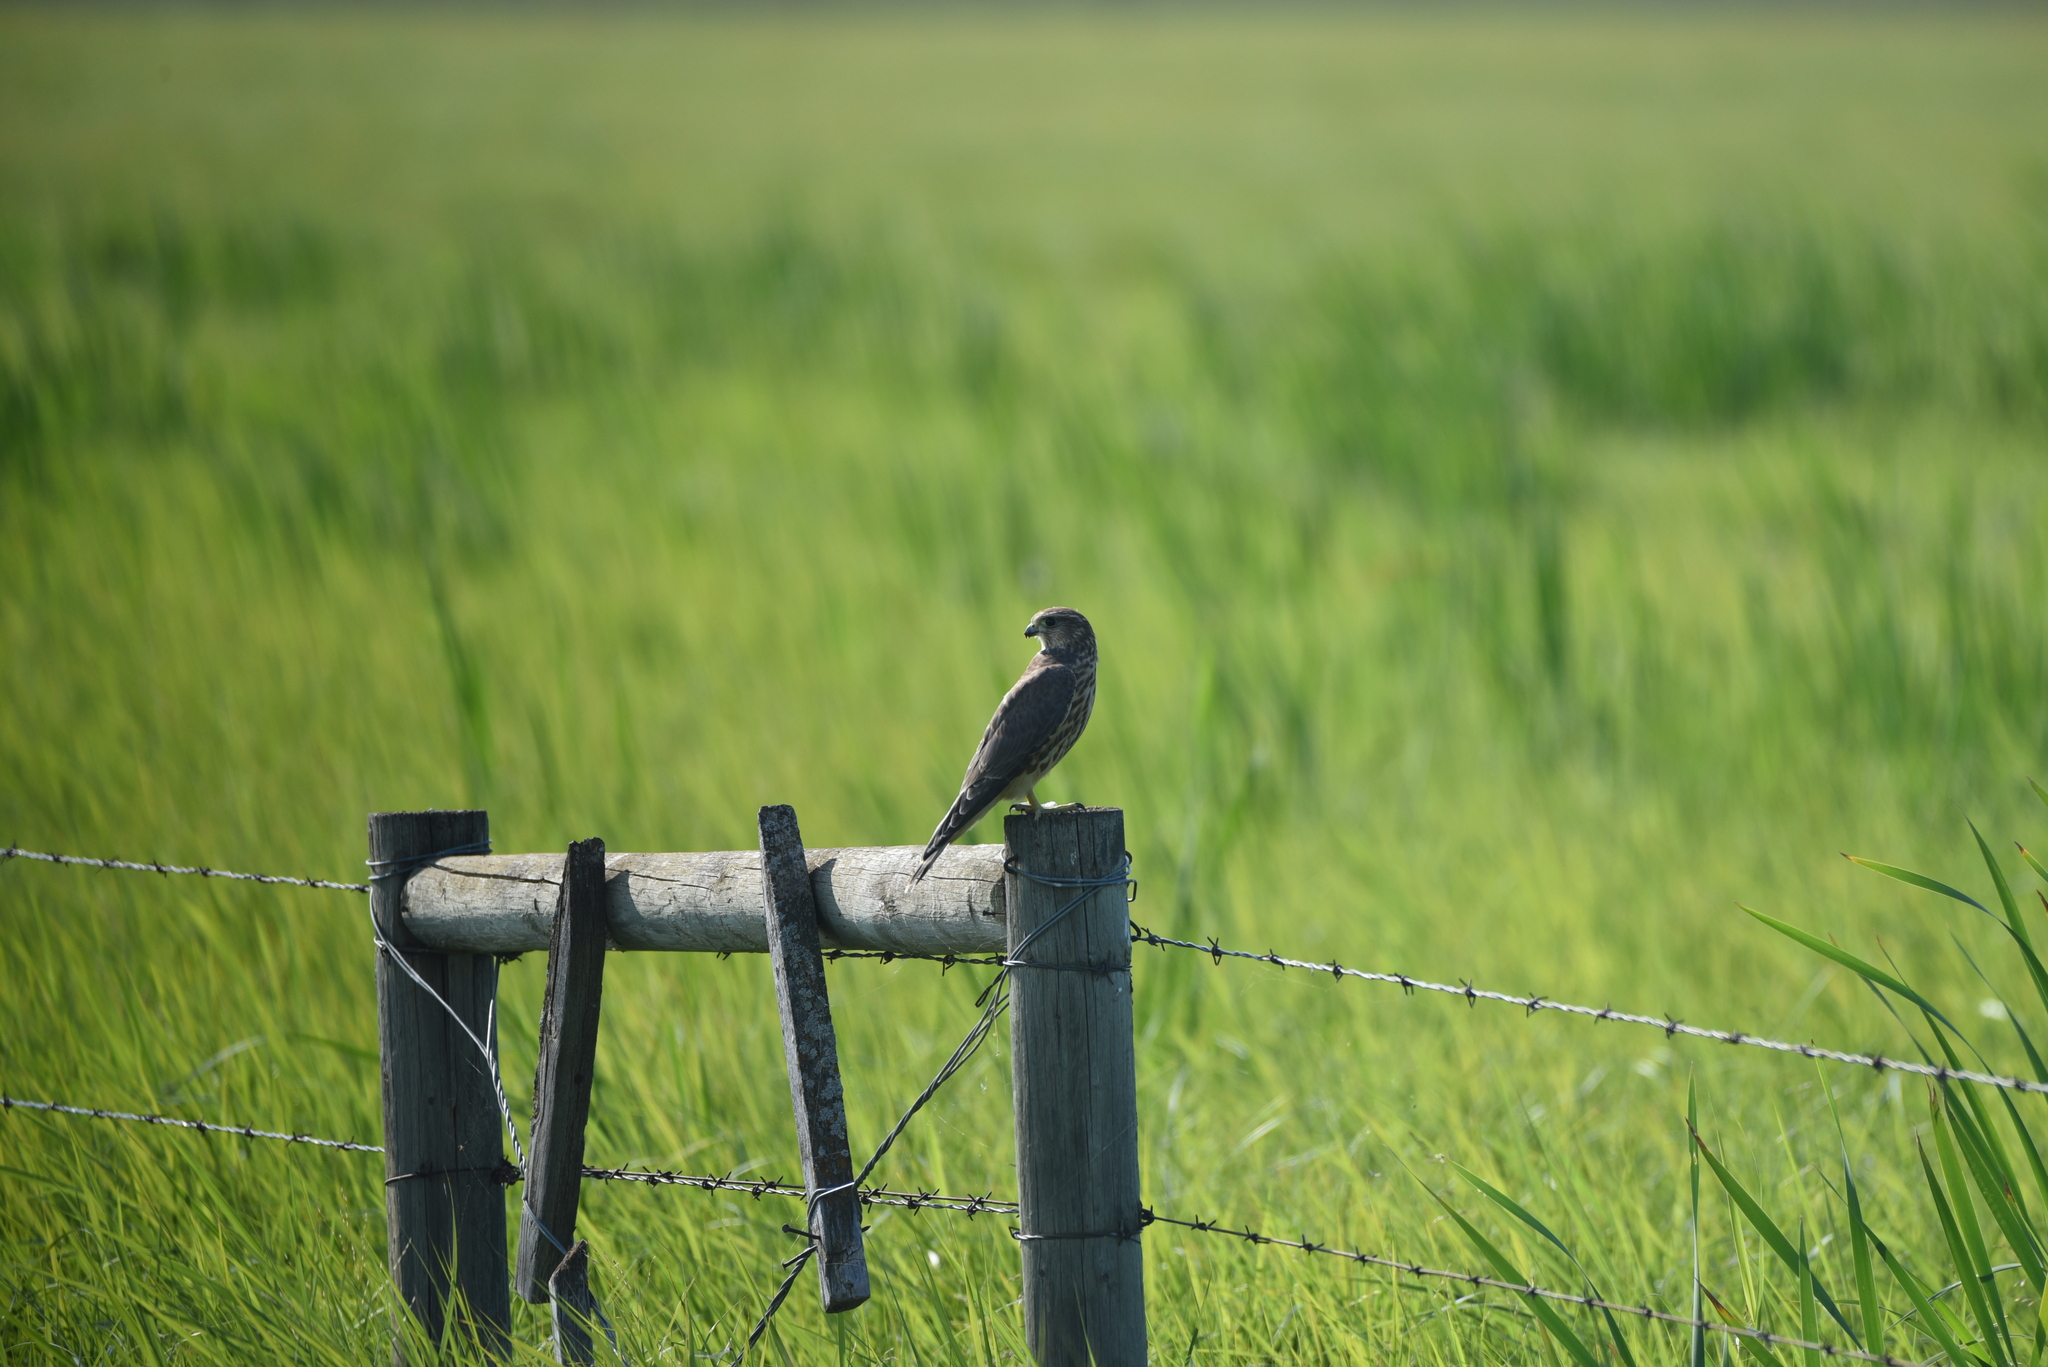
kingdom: Animalia
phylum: Chordata
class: Aves
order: Falconiformes
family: Falconidae
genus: Falco
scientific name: Falco columbarius
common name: Merlin
